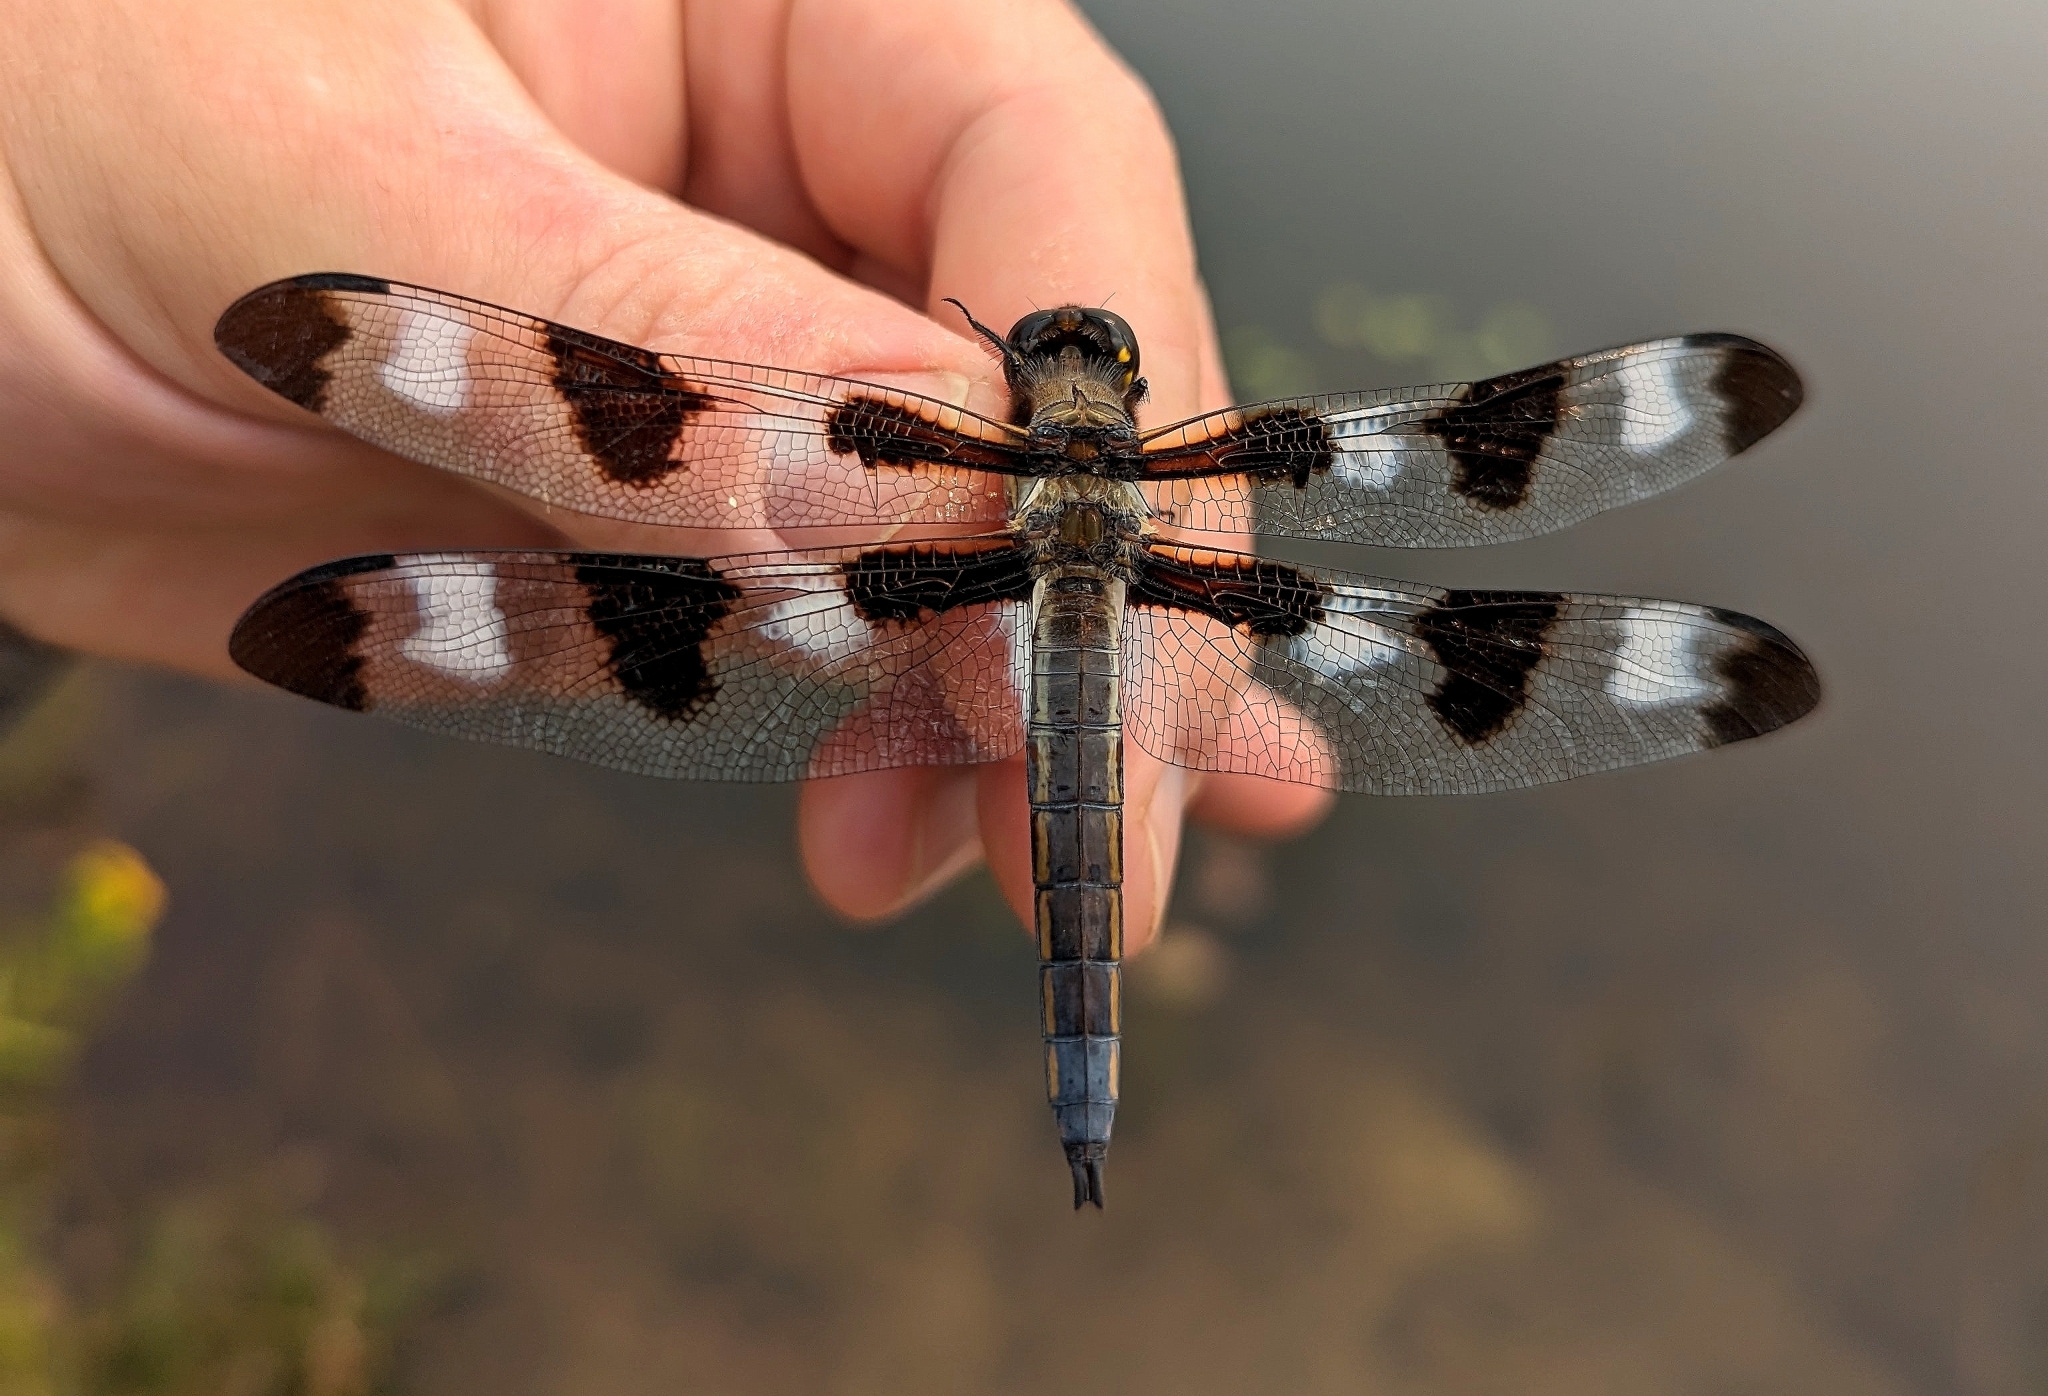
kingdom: Animalia
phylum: Arthropoda
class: Insecta
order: Odonata
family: Libellulidae
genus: Libellula
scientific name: Libellula pulchella
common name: Twelve-spotted skimmer
